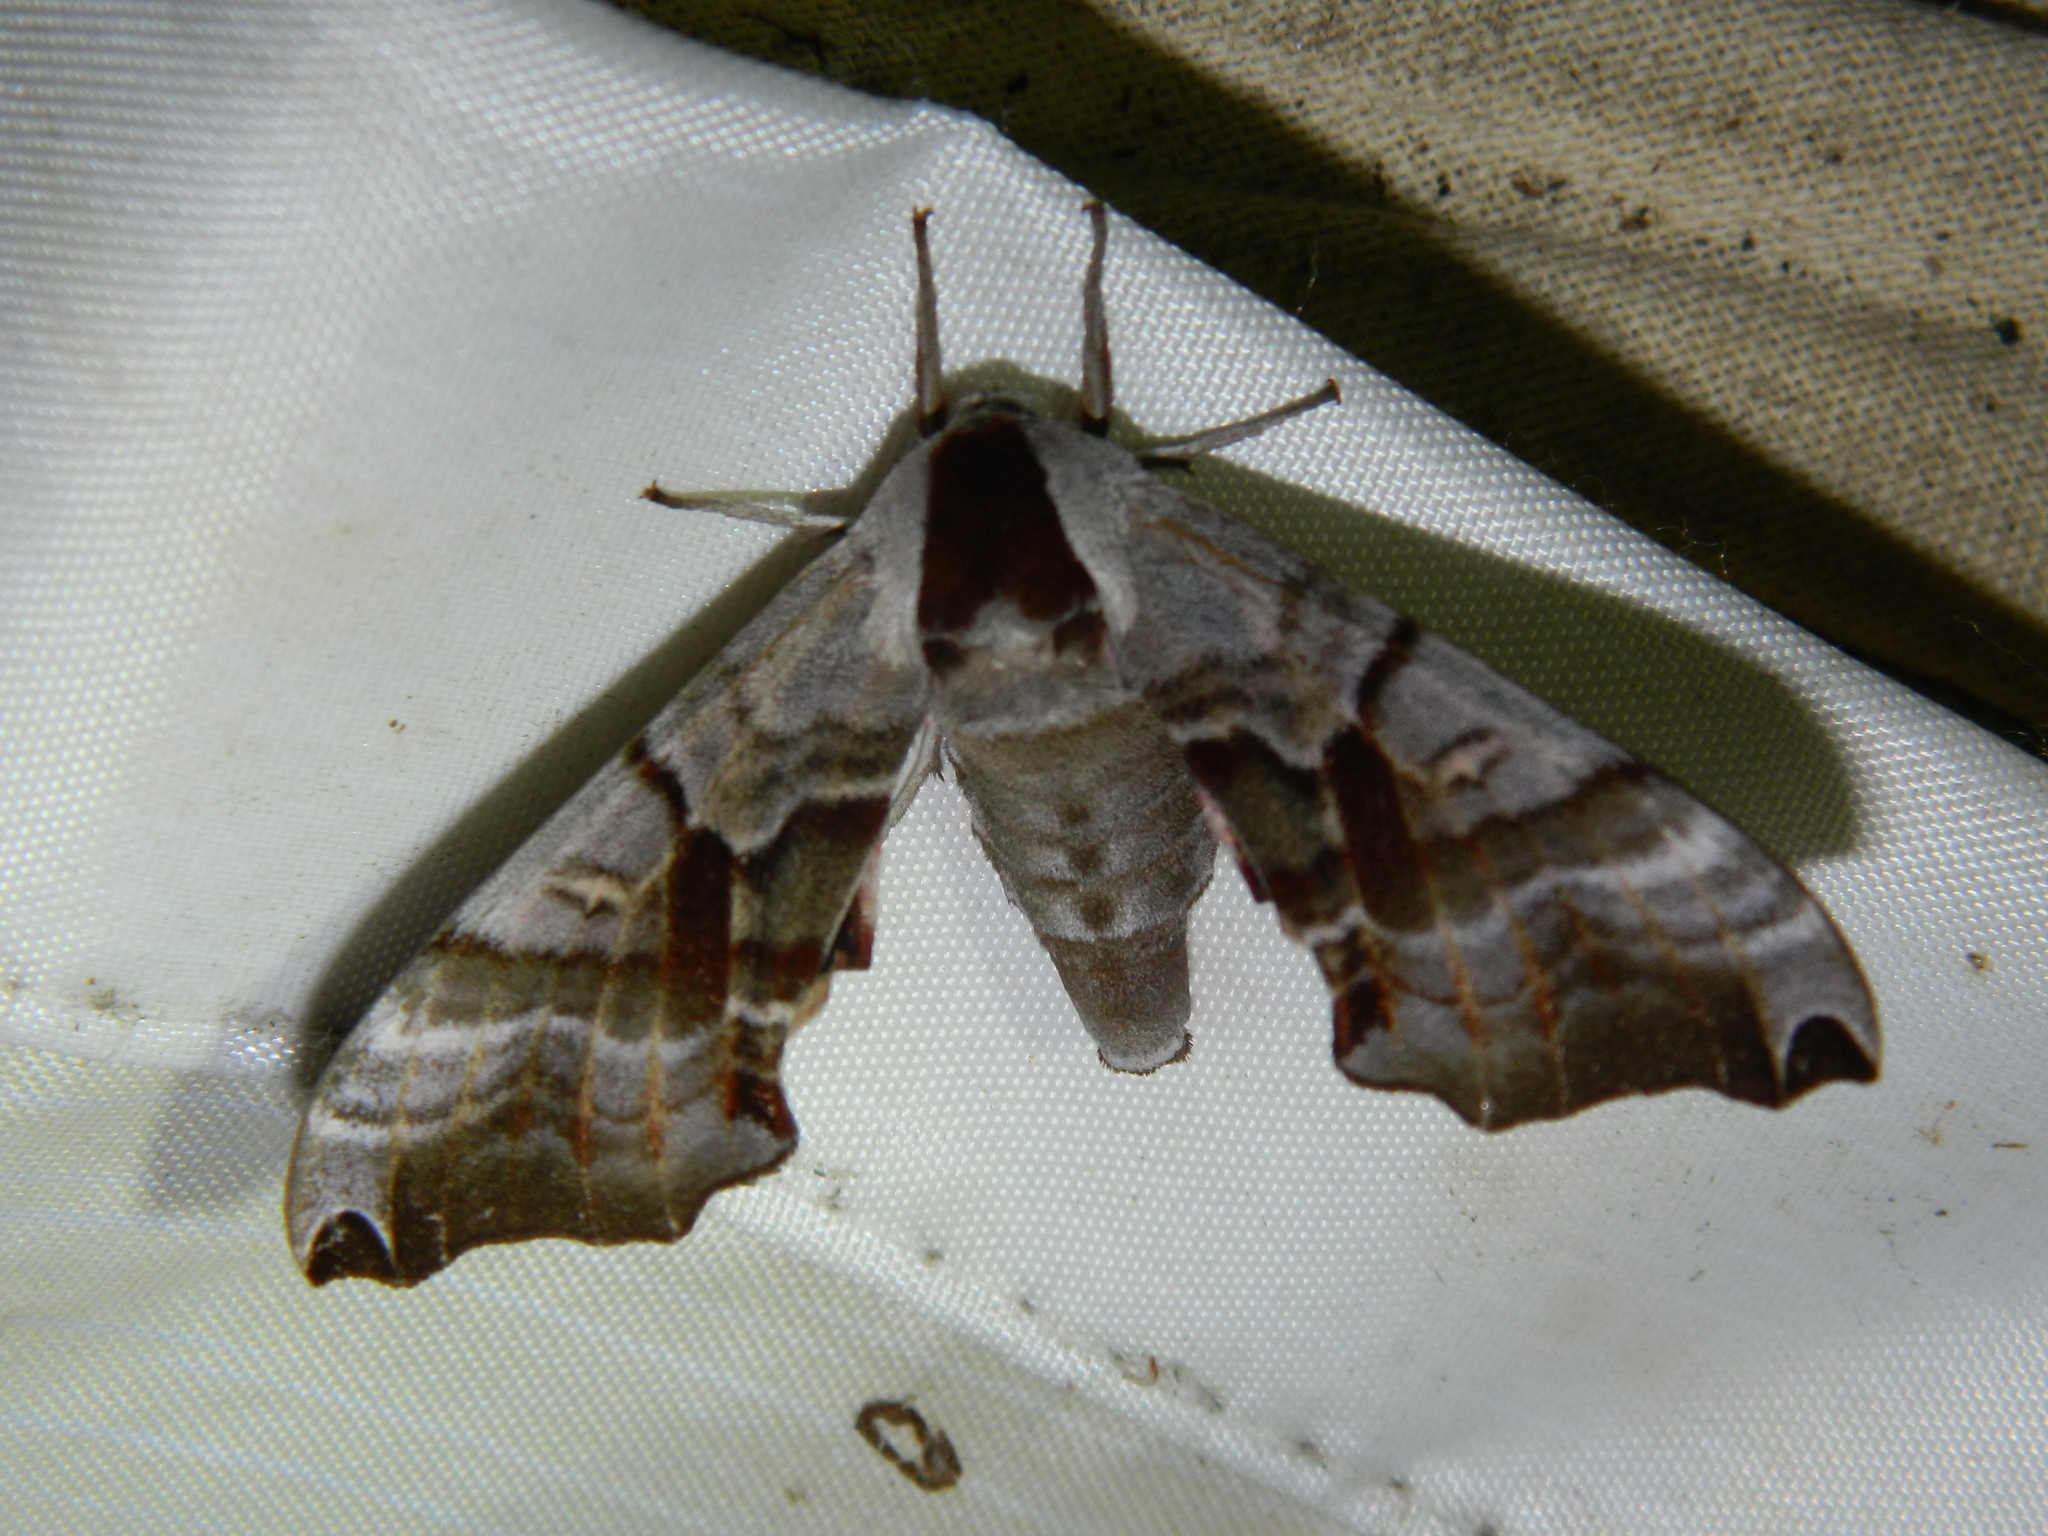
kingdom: Animalia
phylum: Arthropoda
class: Insecta
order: Lepidoptera
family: Sphingidae
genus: Smerinthus
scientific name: Smerinthus jamaicensis
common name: Twin spotted sphinx
